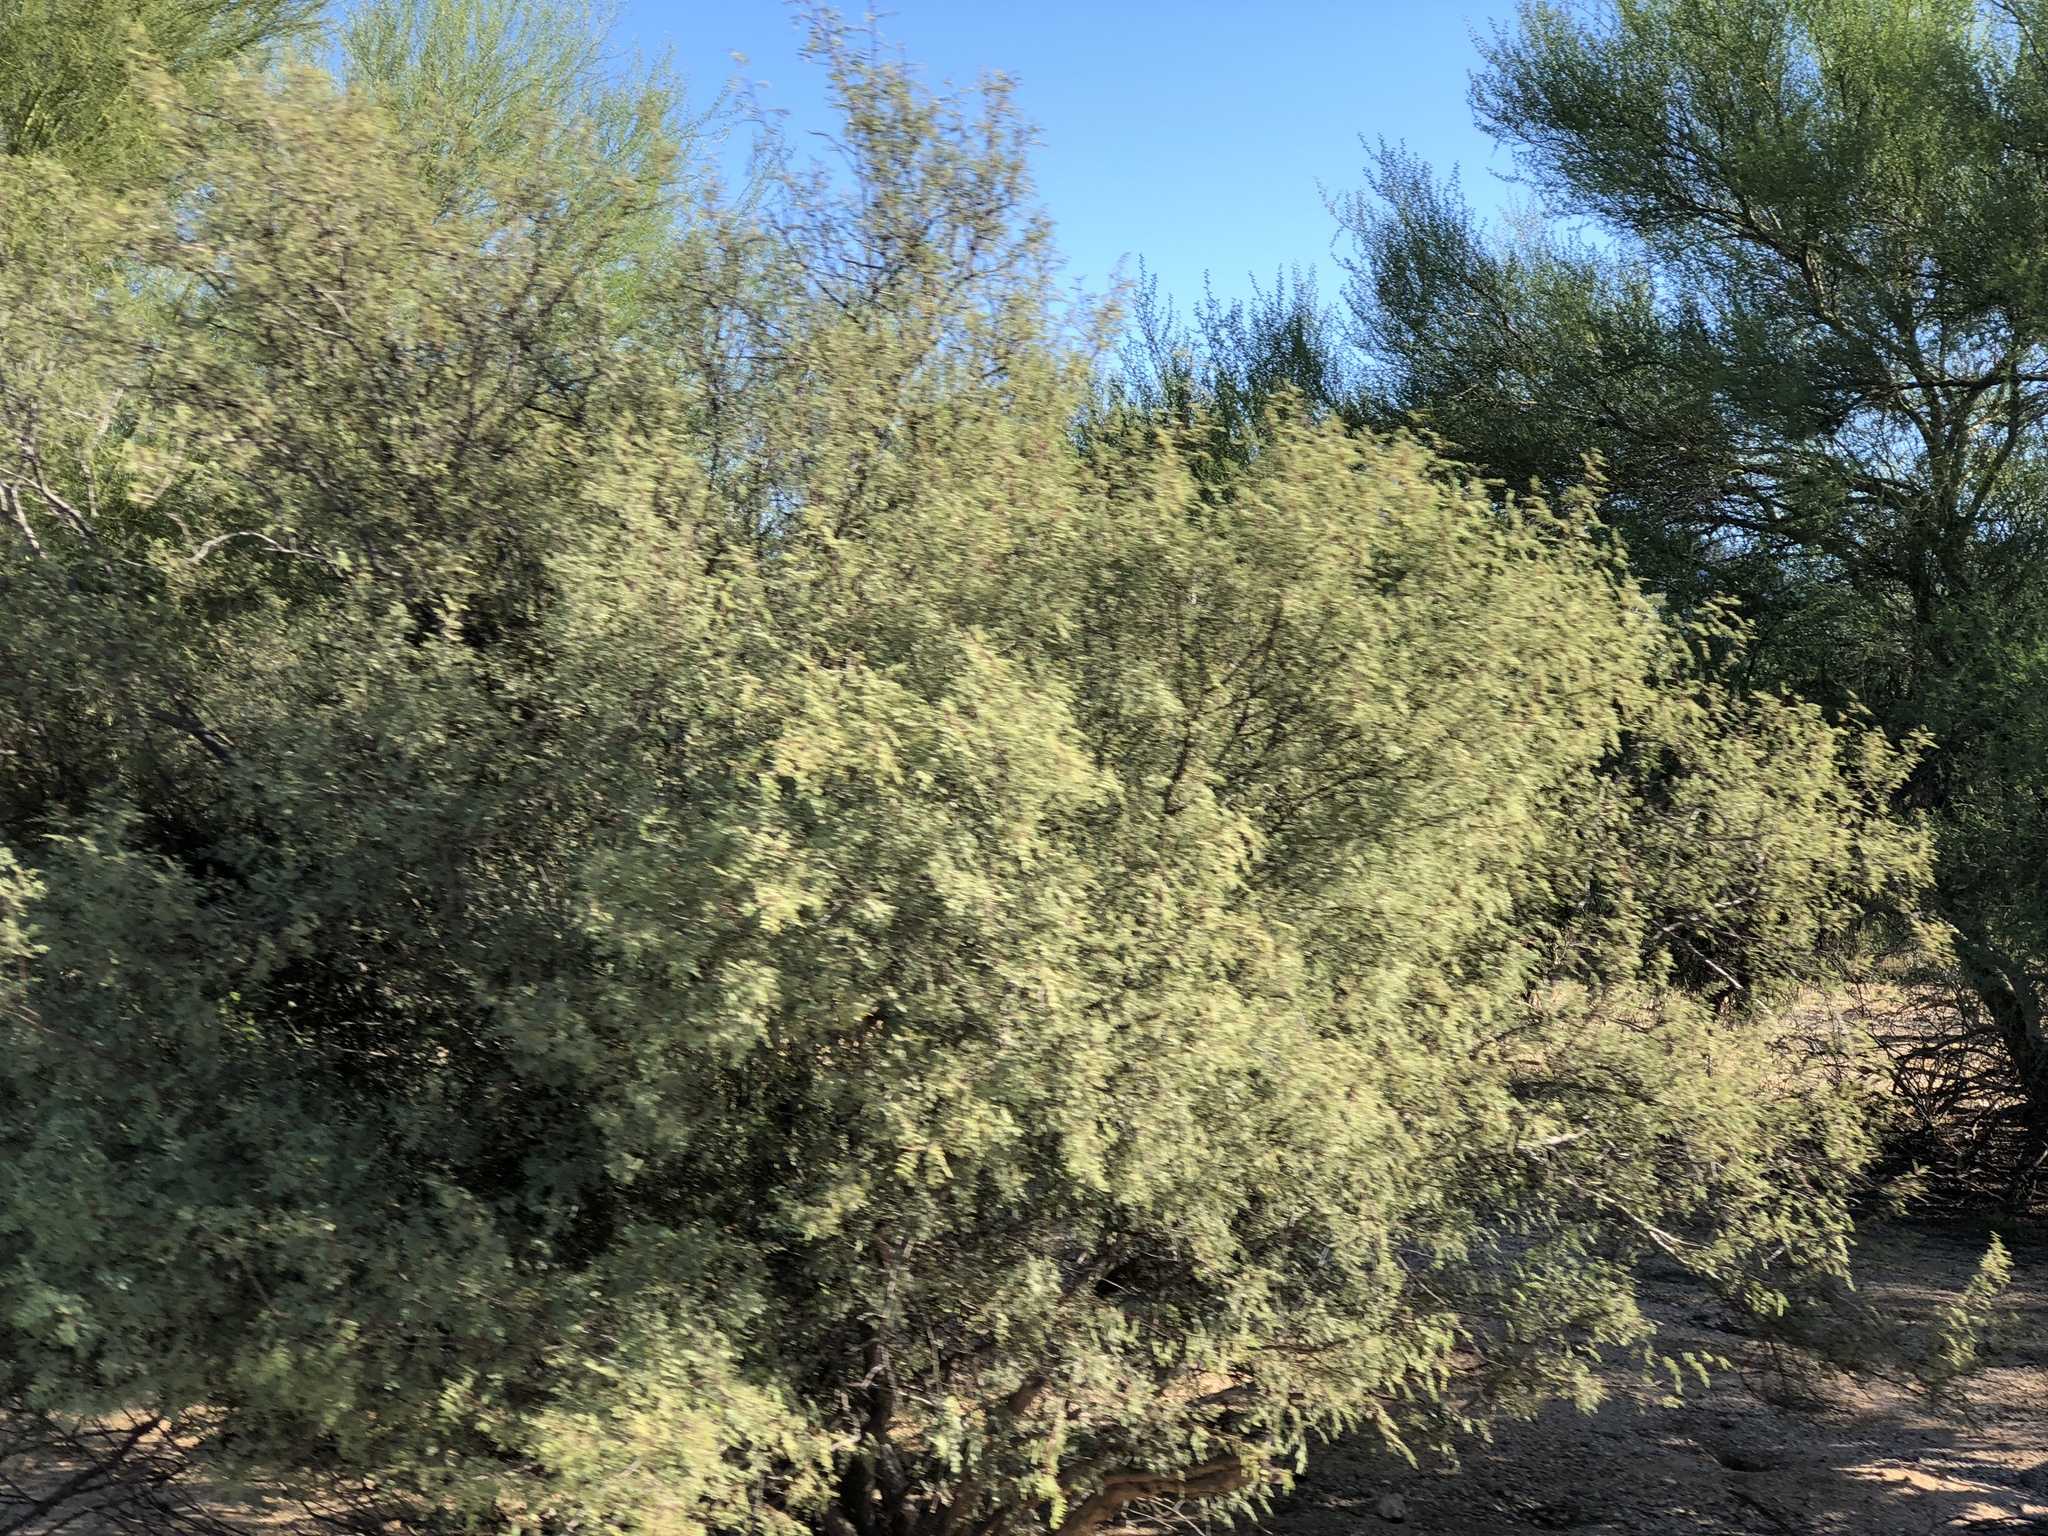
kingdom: Plantae
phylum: Tracheophyta
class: Magnoliopsida
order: Fabales
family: Fabaceae
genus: Vachellia
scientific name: Vachellia constricta
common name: Mescat acacia
